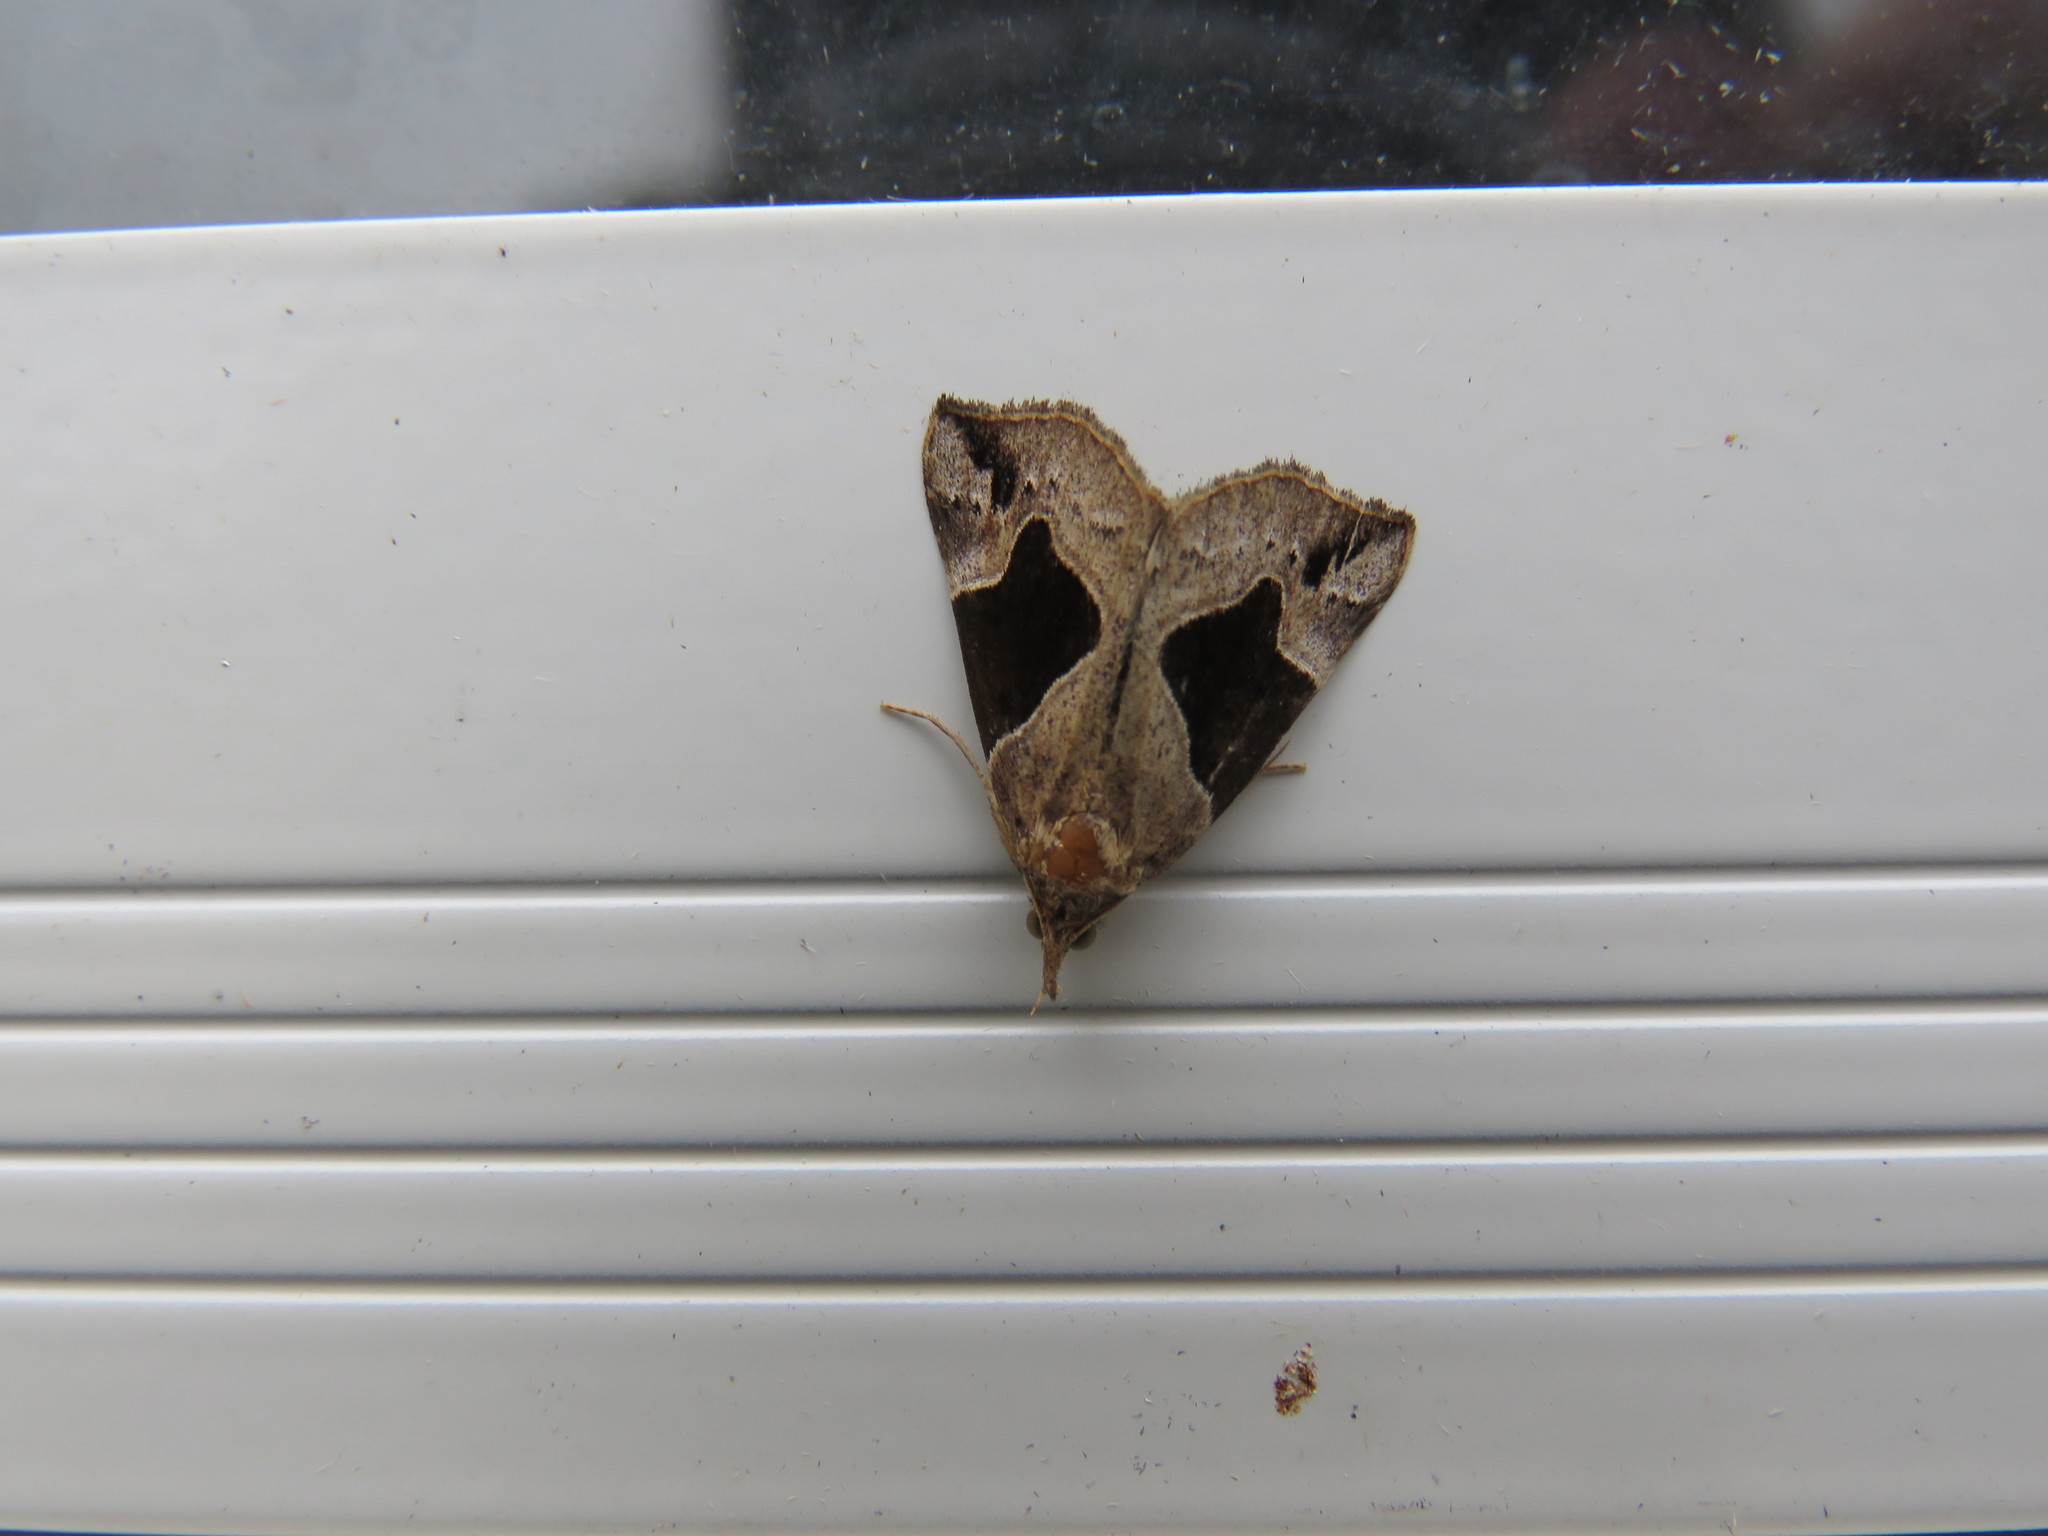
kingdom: Animalia
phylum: Arthropoda
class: Insecta
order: Lepidoptera
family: Erebidae
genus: Hypena
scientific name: Hypena manalis
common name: Flowing-line bomolocha moth
